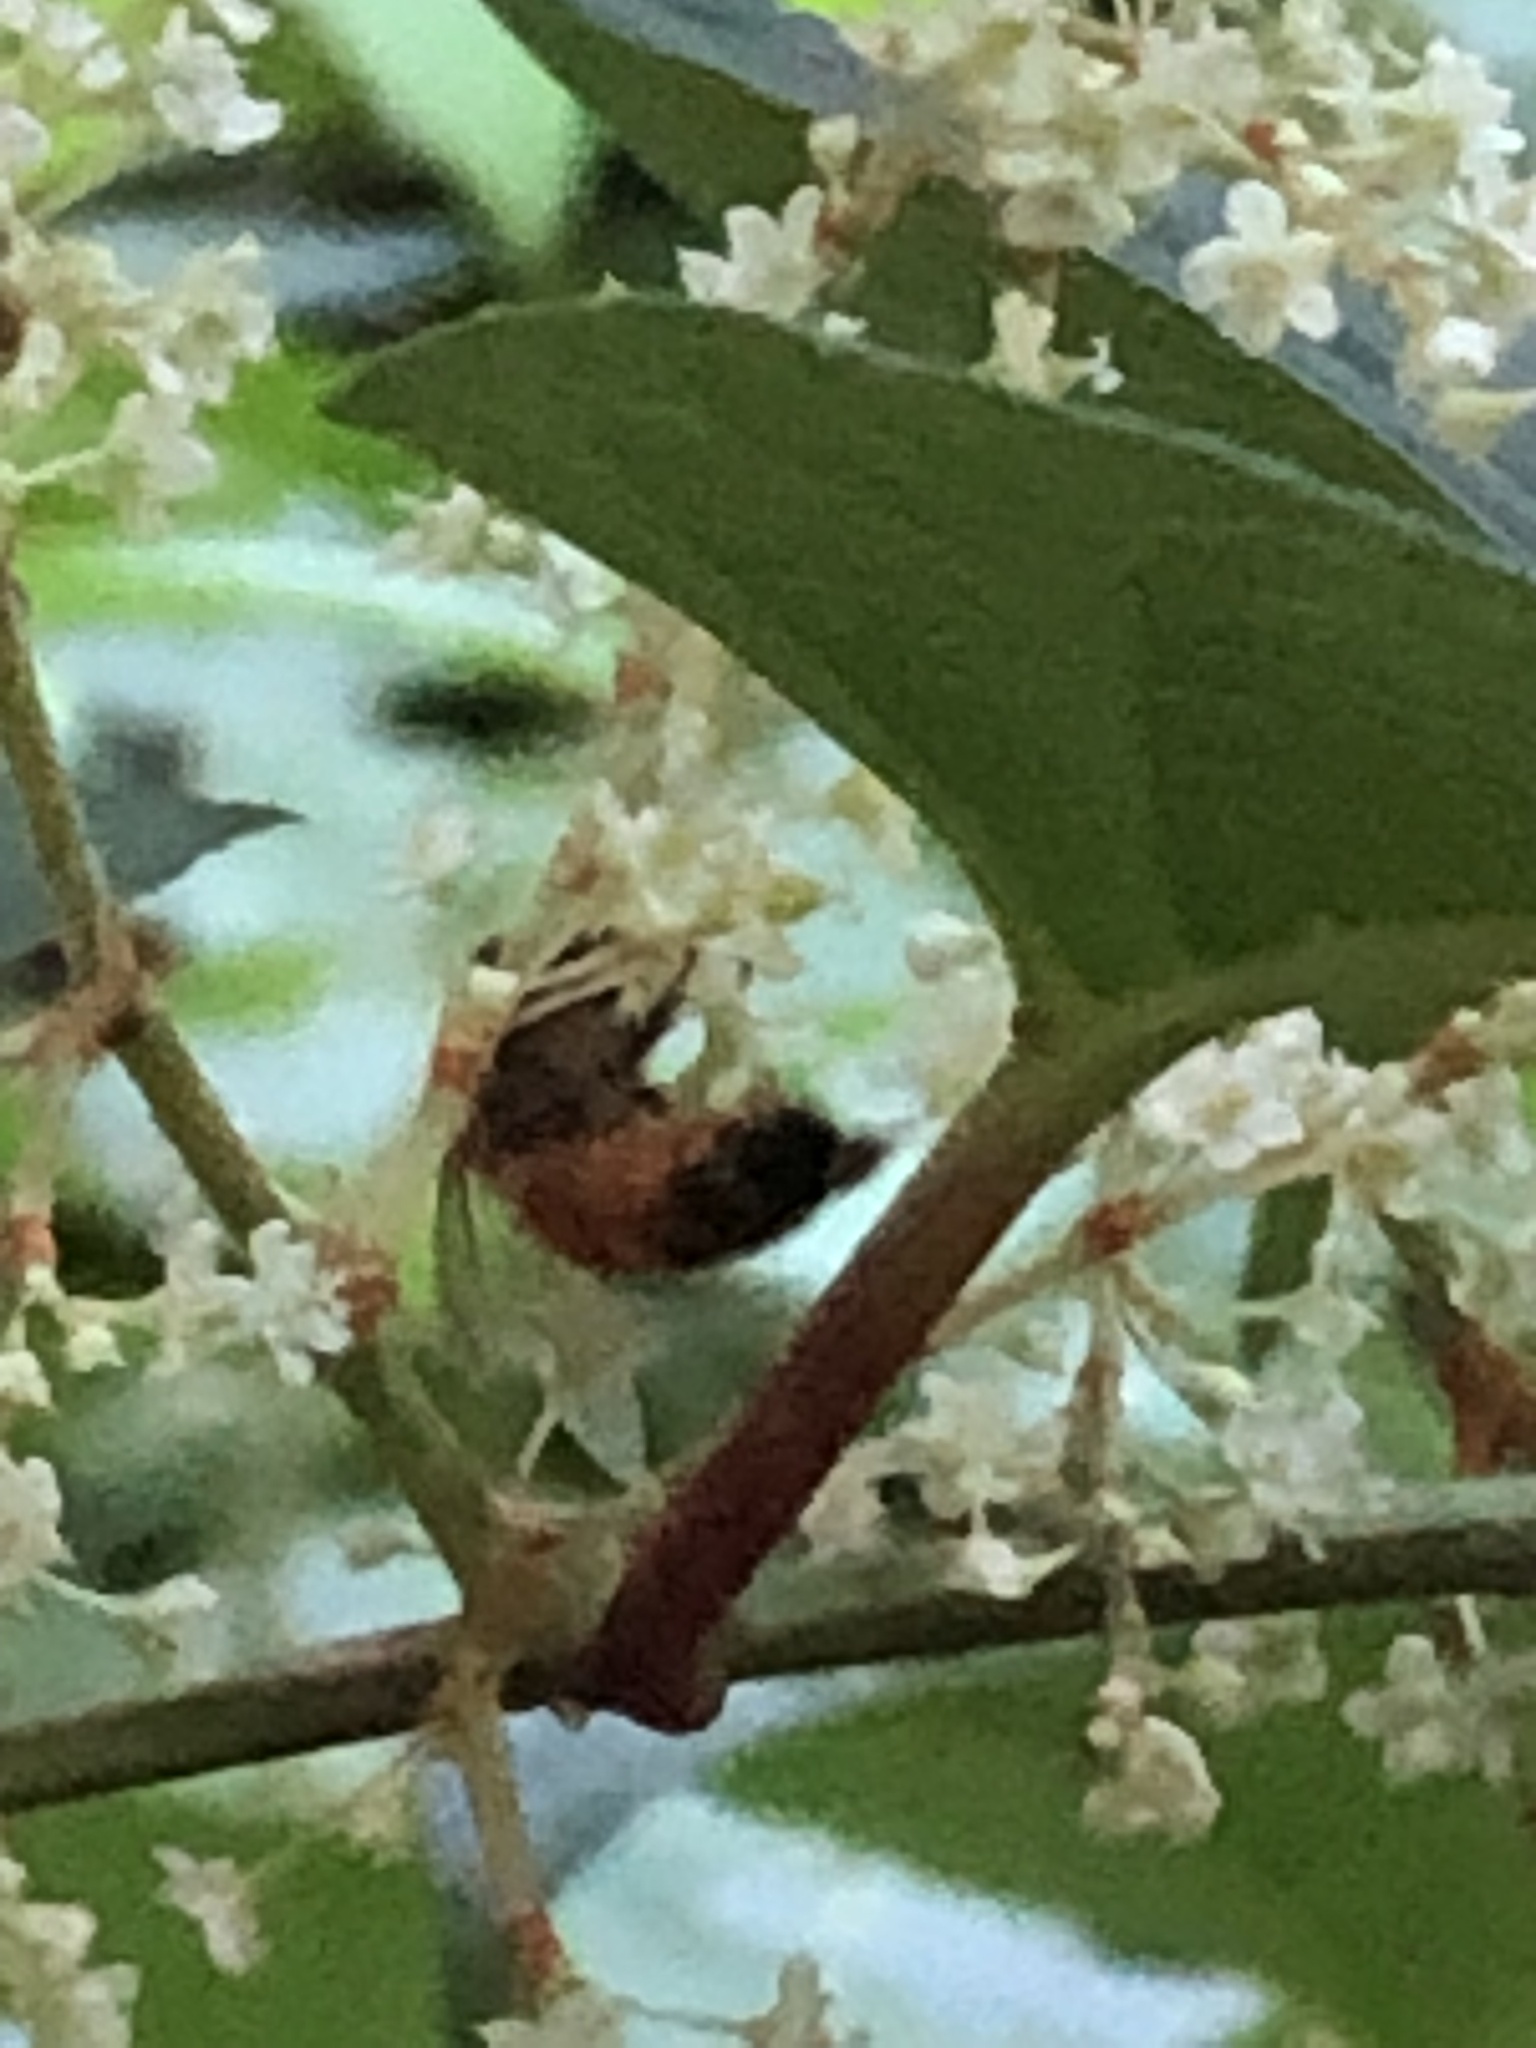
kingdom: Animalia
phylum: Arthropoda
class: Insecta
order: Hymenoptera
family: Apidae
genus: Apis
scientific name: Apis mellifera
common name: Honey bee
